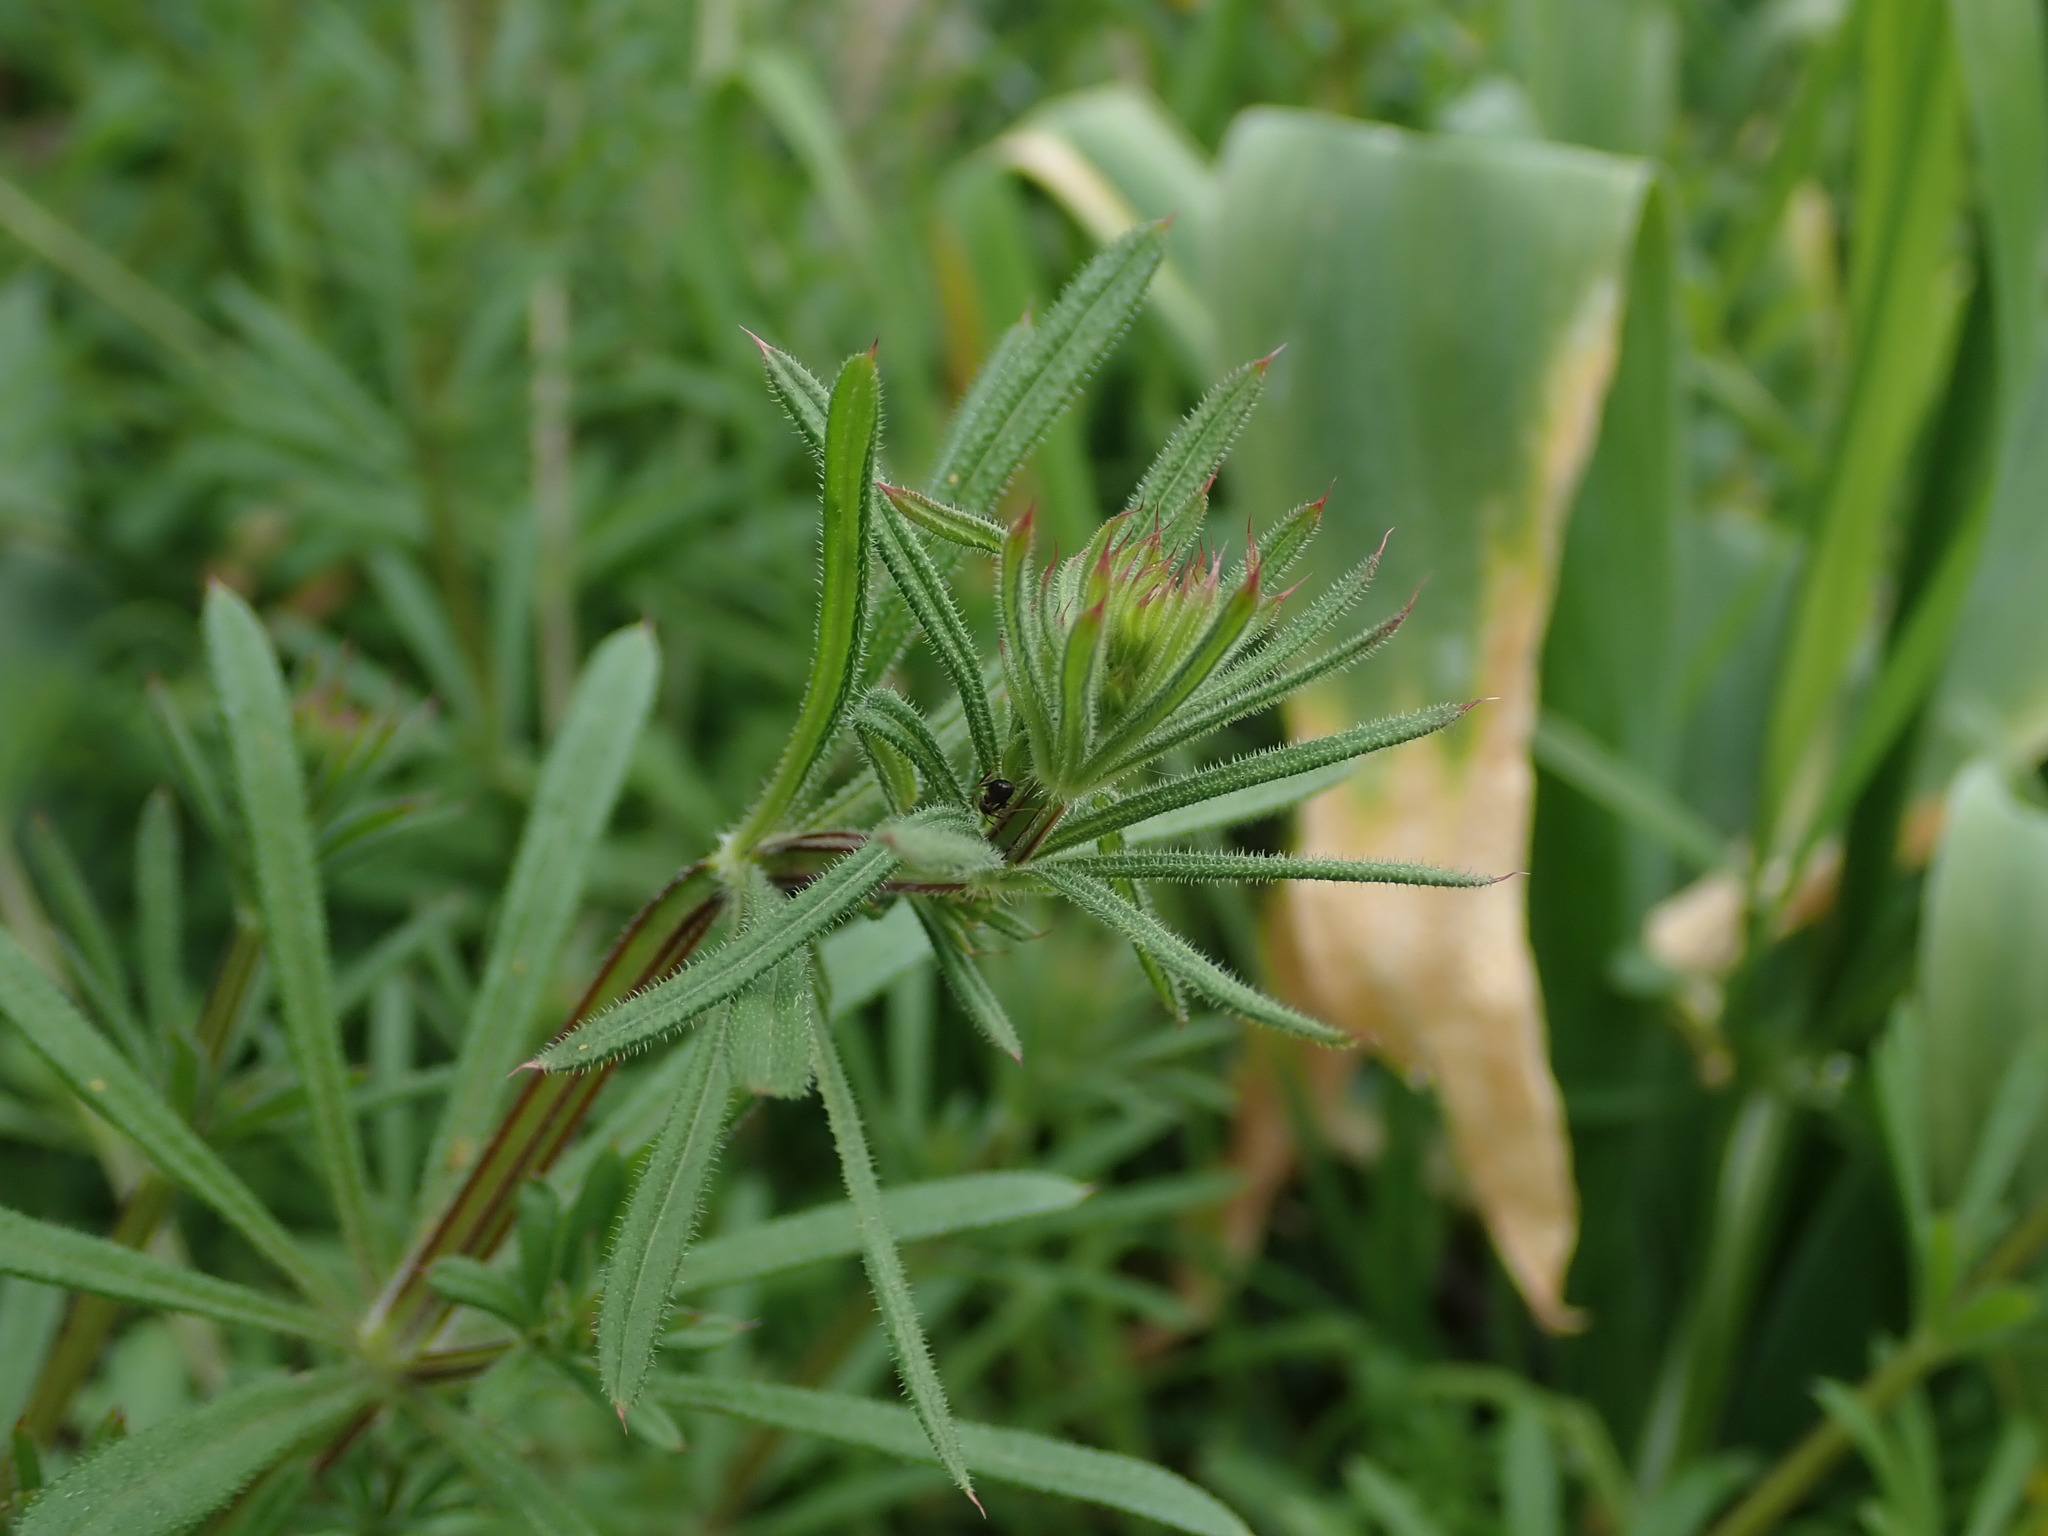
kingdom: Plantae
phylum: Tracheophyta
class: Magnoliopsida
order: Gentianales
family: Rubiaceae
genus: Galium
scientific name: Galium aparine
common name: Cleavers
